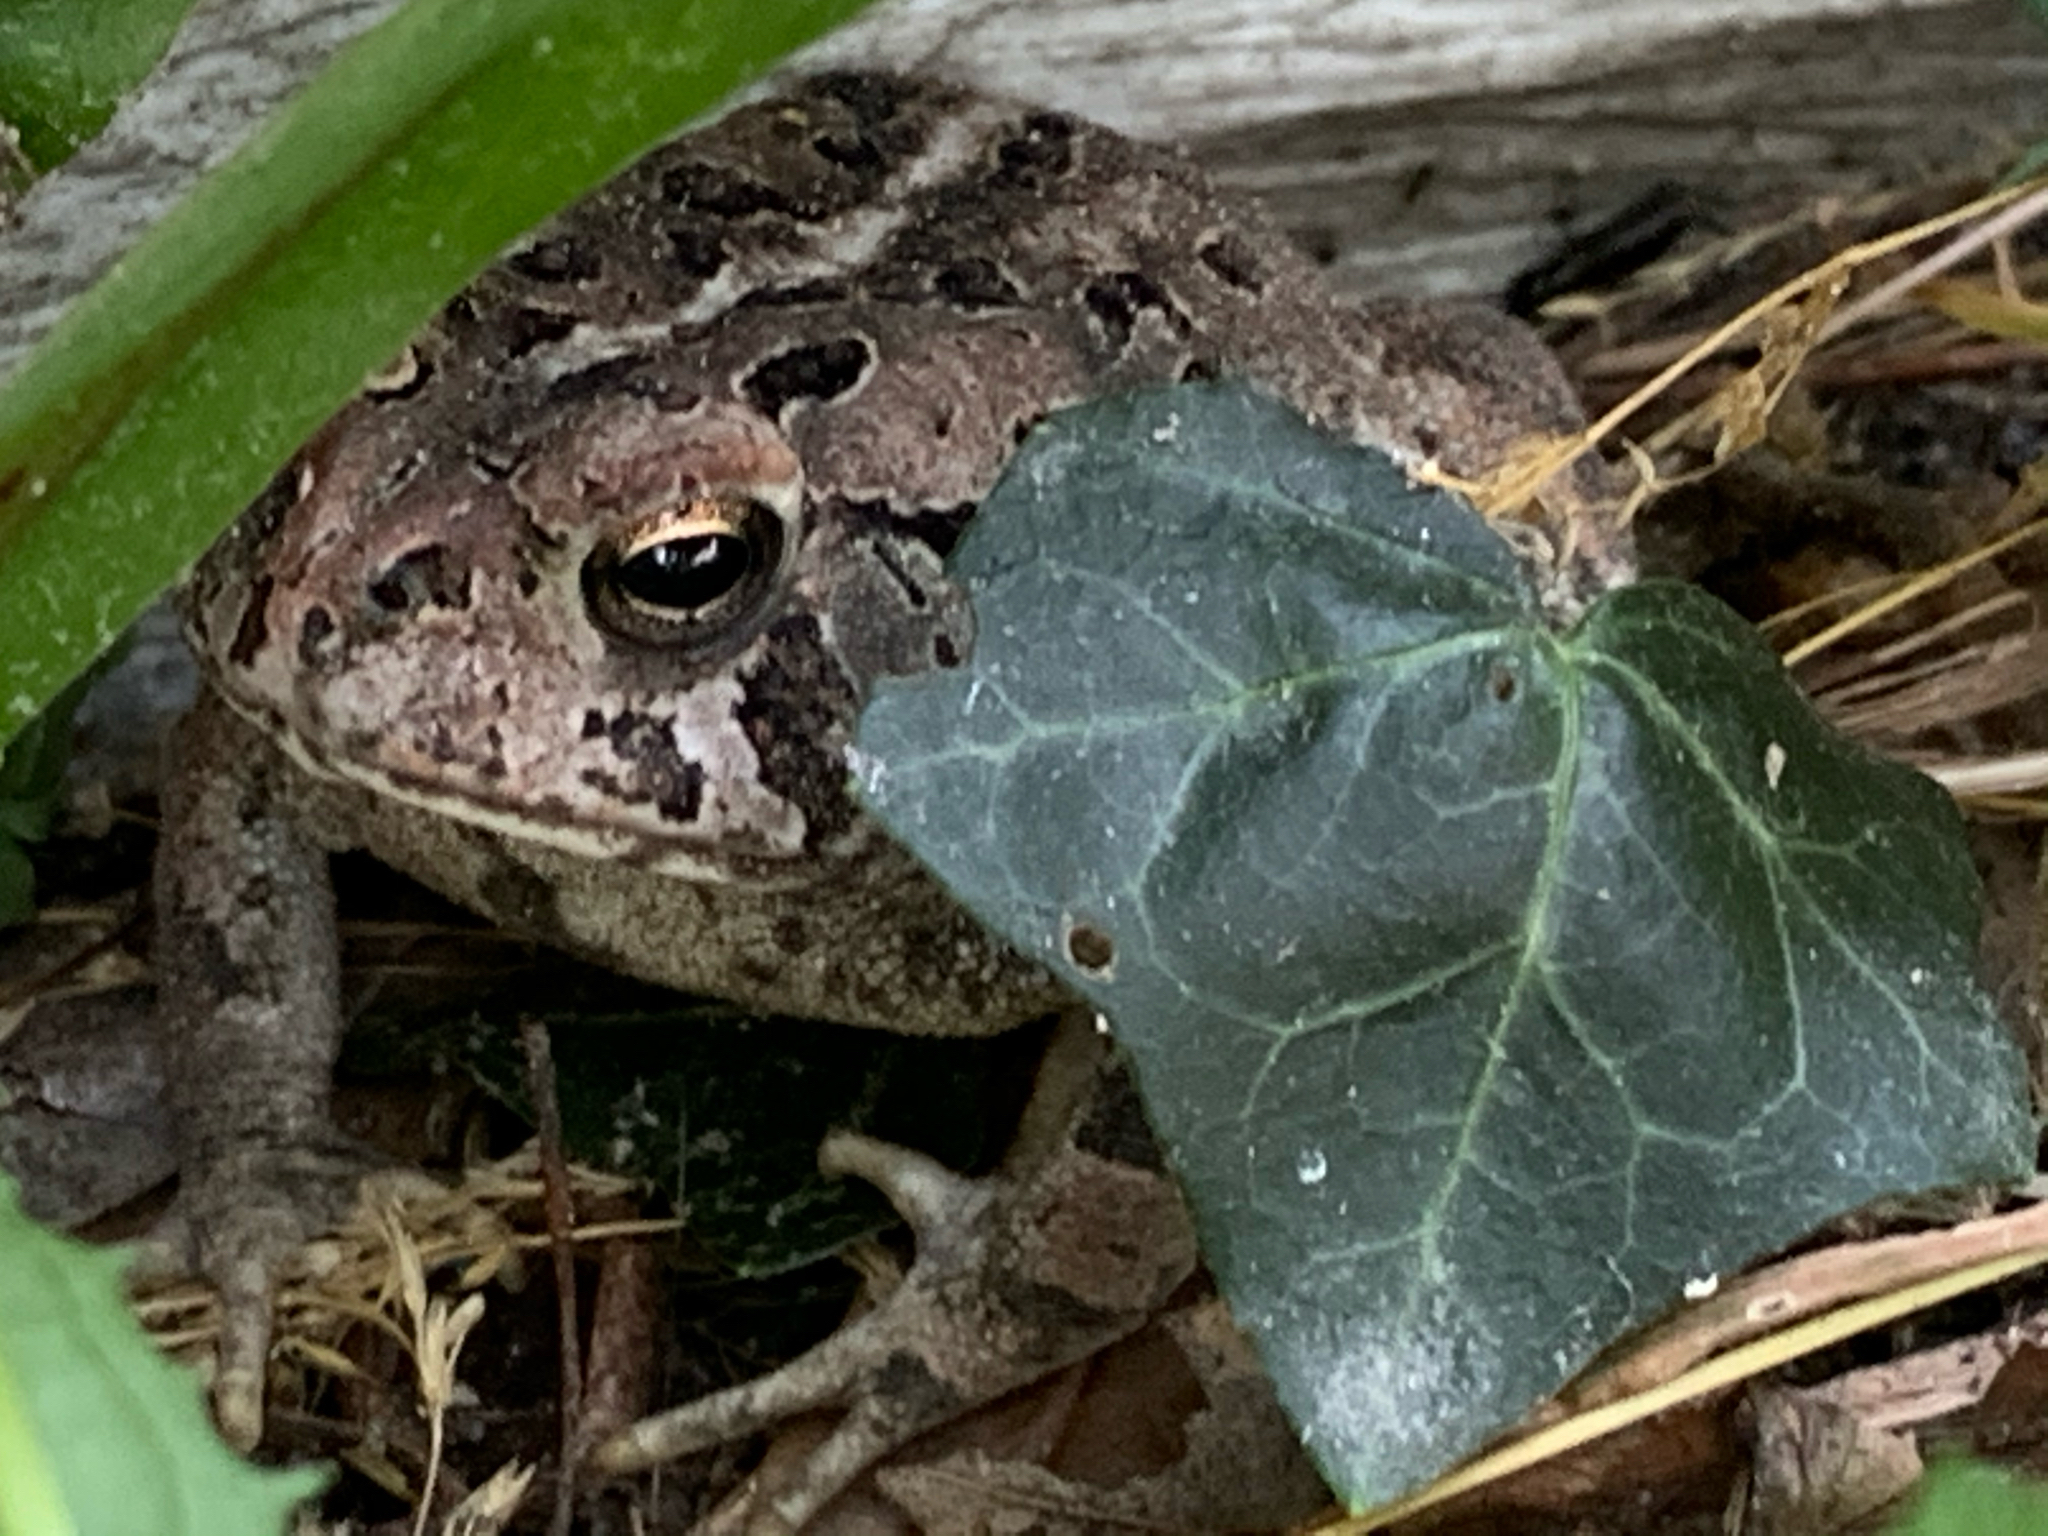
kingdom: Animalia
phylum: Chordata
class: Amphibia
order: Anura
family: Bufonidae
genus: Anaxyrus
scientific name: Anaxyrus fowleri
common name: Fowler's toad
